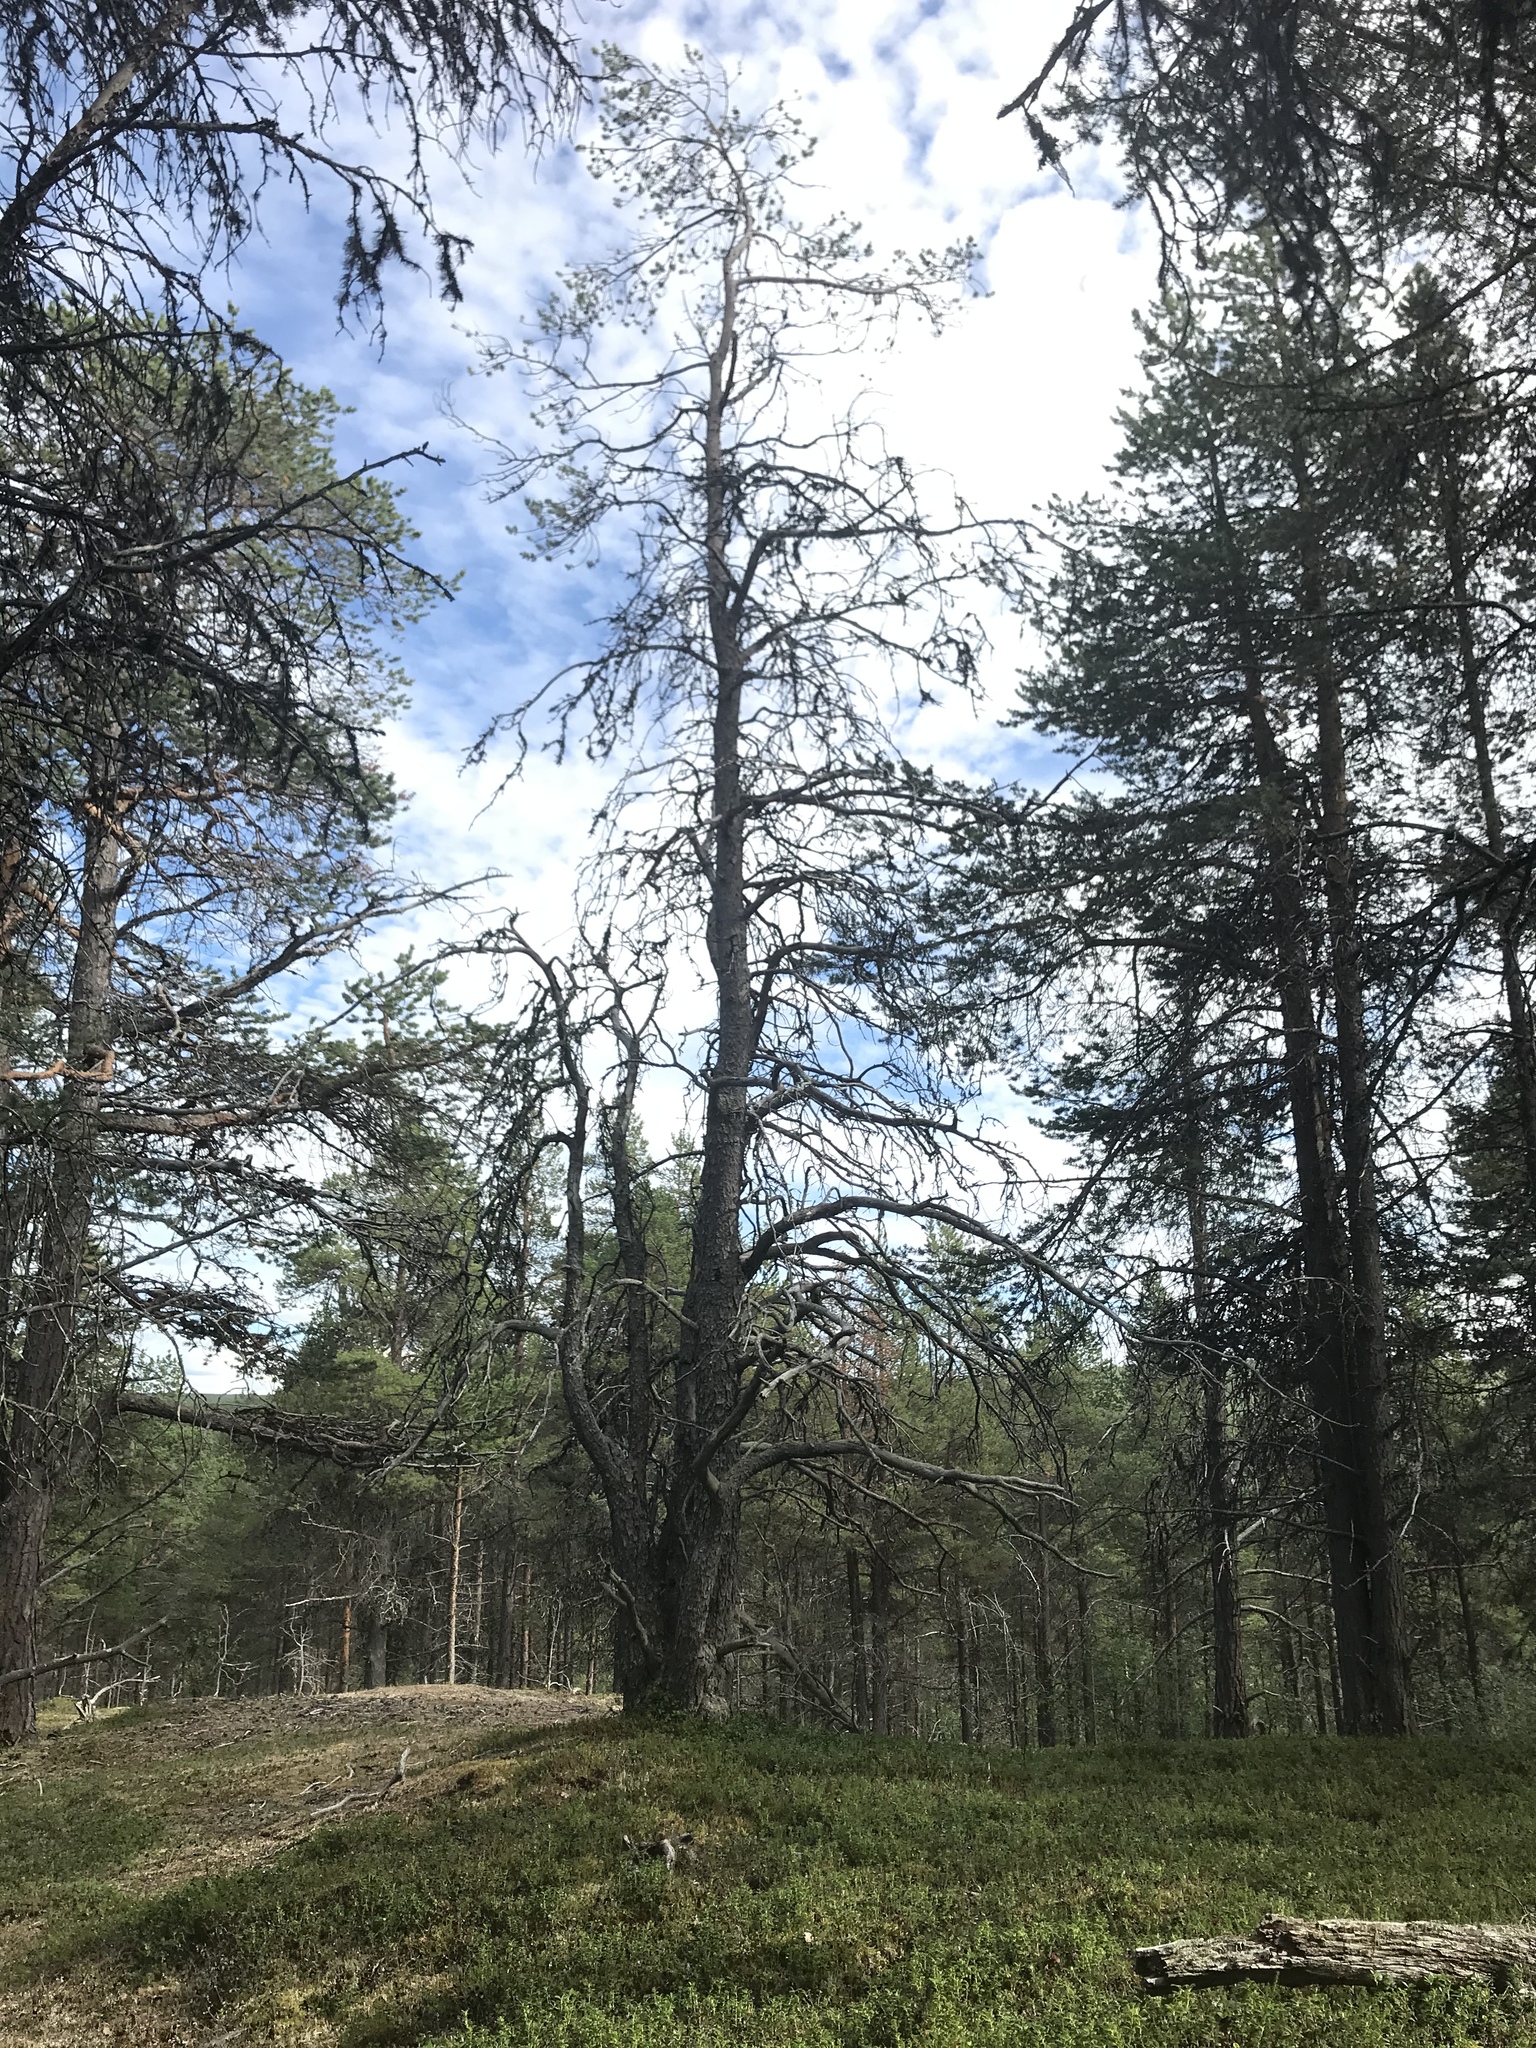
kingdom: Plantae
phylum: Tracheophyta
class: Pinopsida
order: Pinales
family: Pinaceae
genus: Pinus
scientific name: Pinus sylvestris
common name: Scots pine
